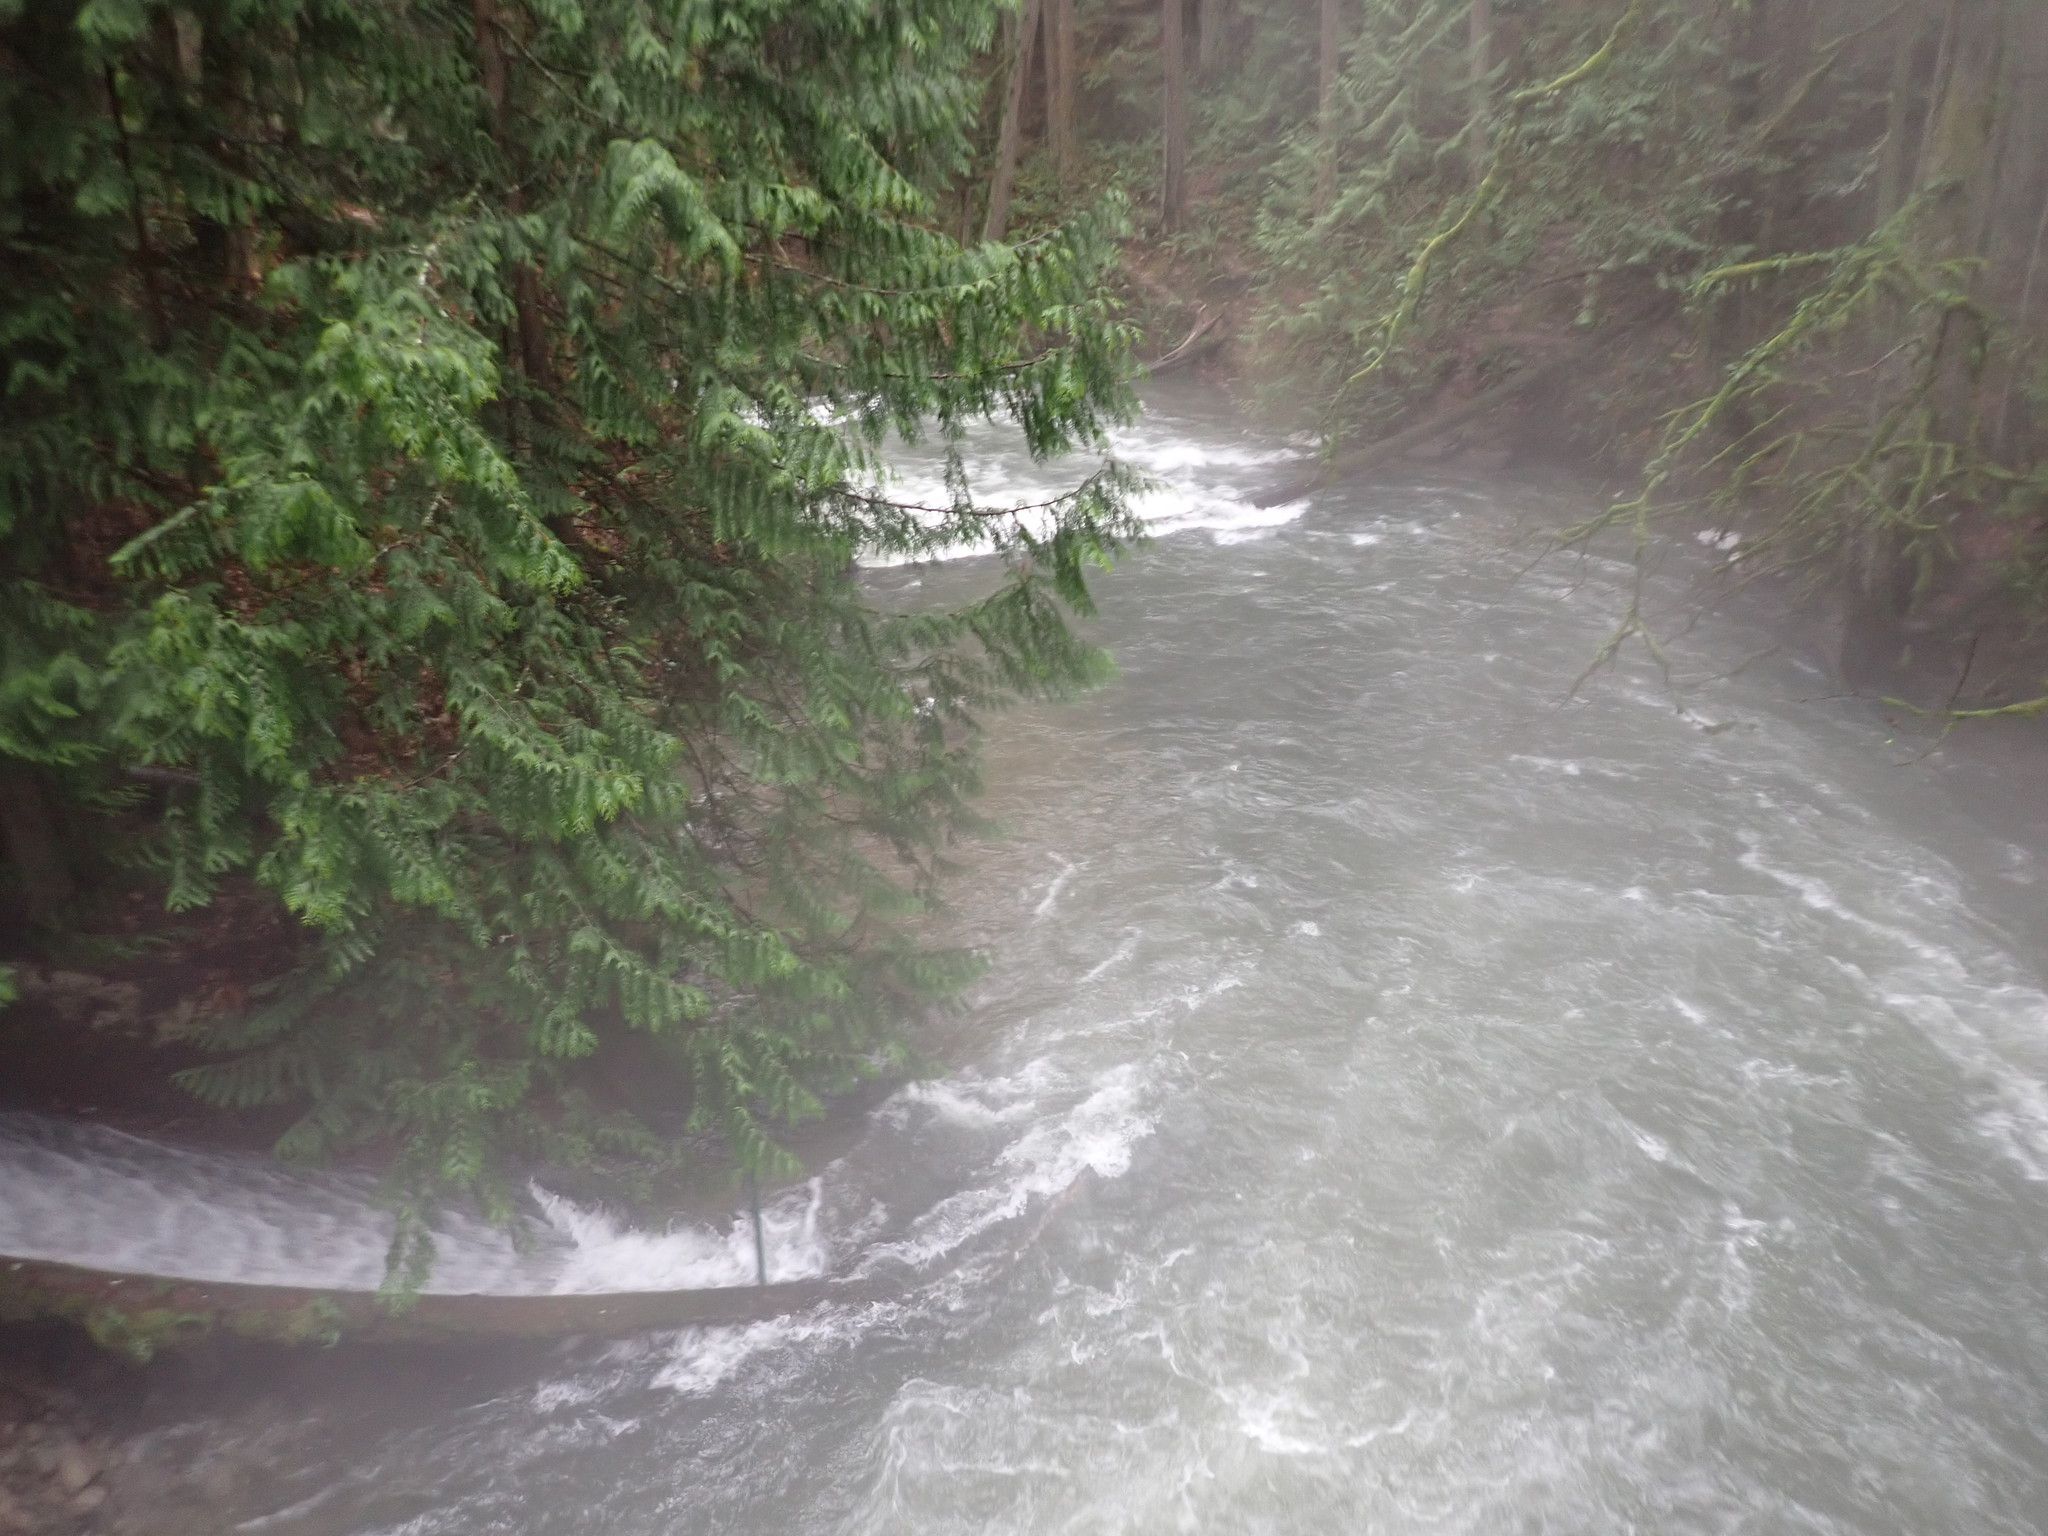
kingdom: Plantae
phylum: Tracheophyta
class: Pinopsida
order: Pinales
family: Cupressaceae
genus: Thuja
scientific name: Thuja plicata
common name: Western red-cedar
